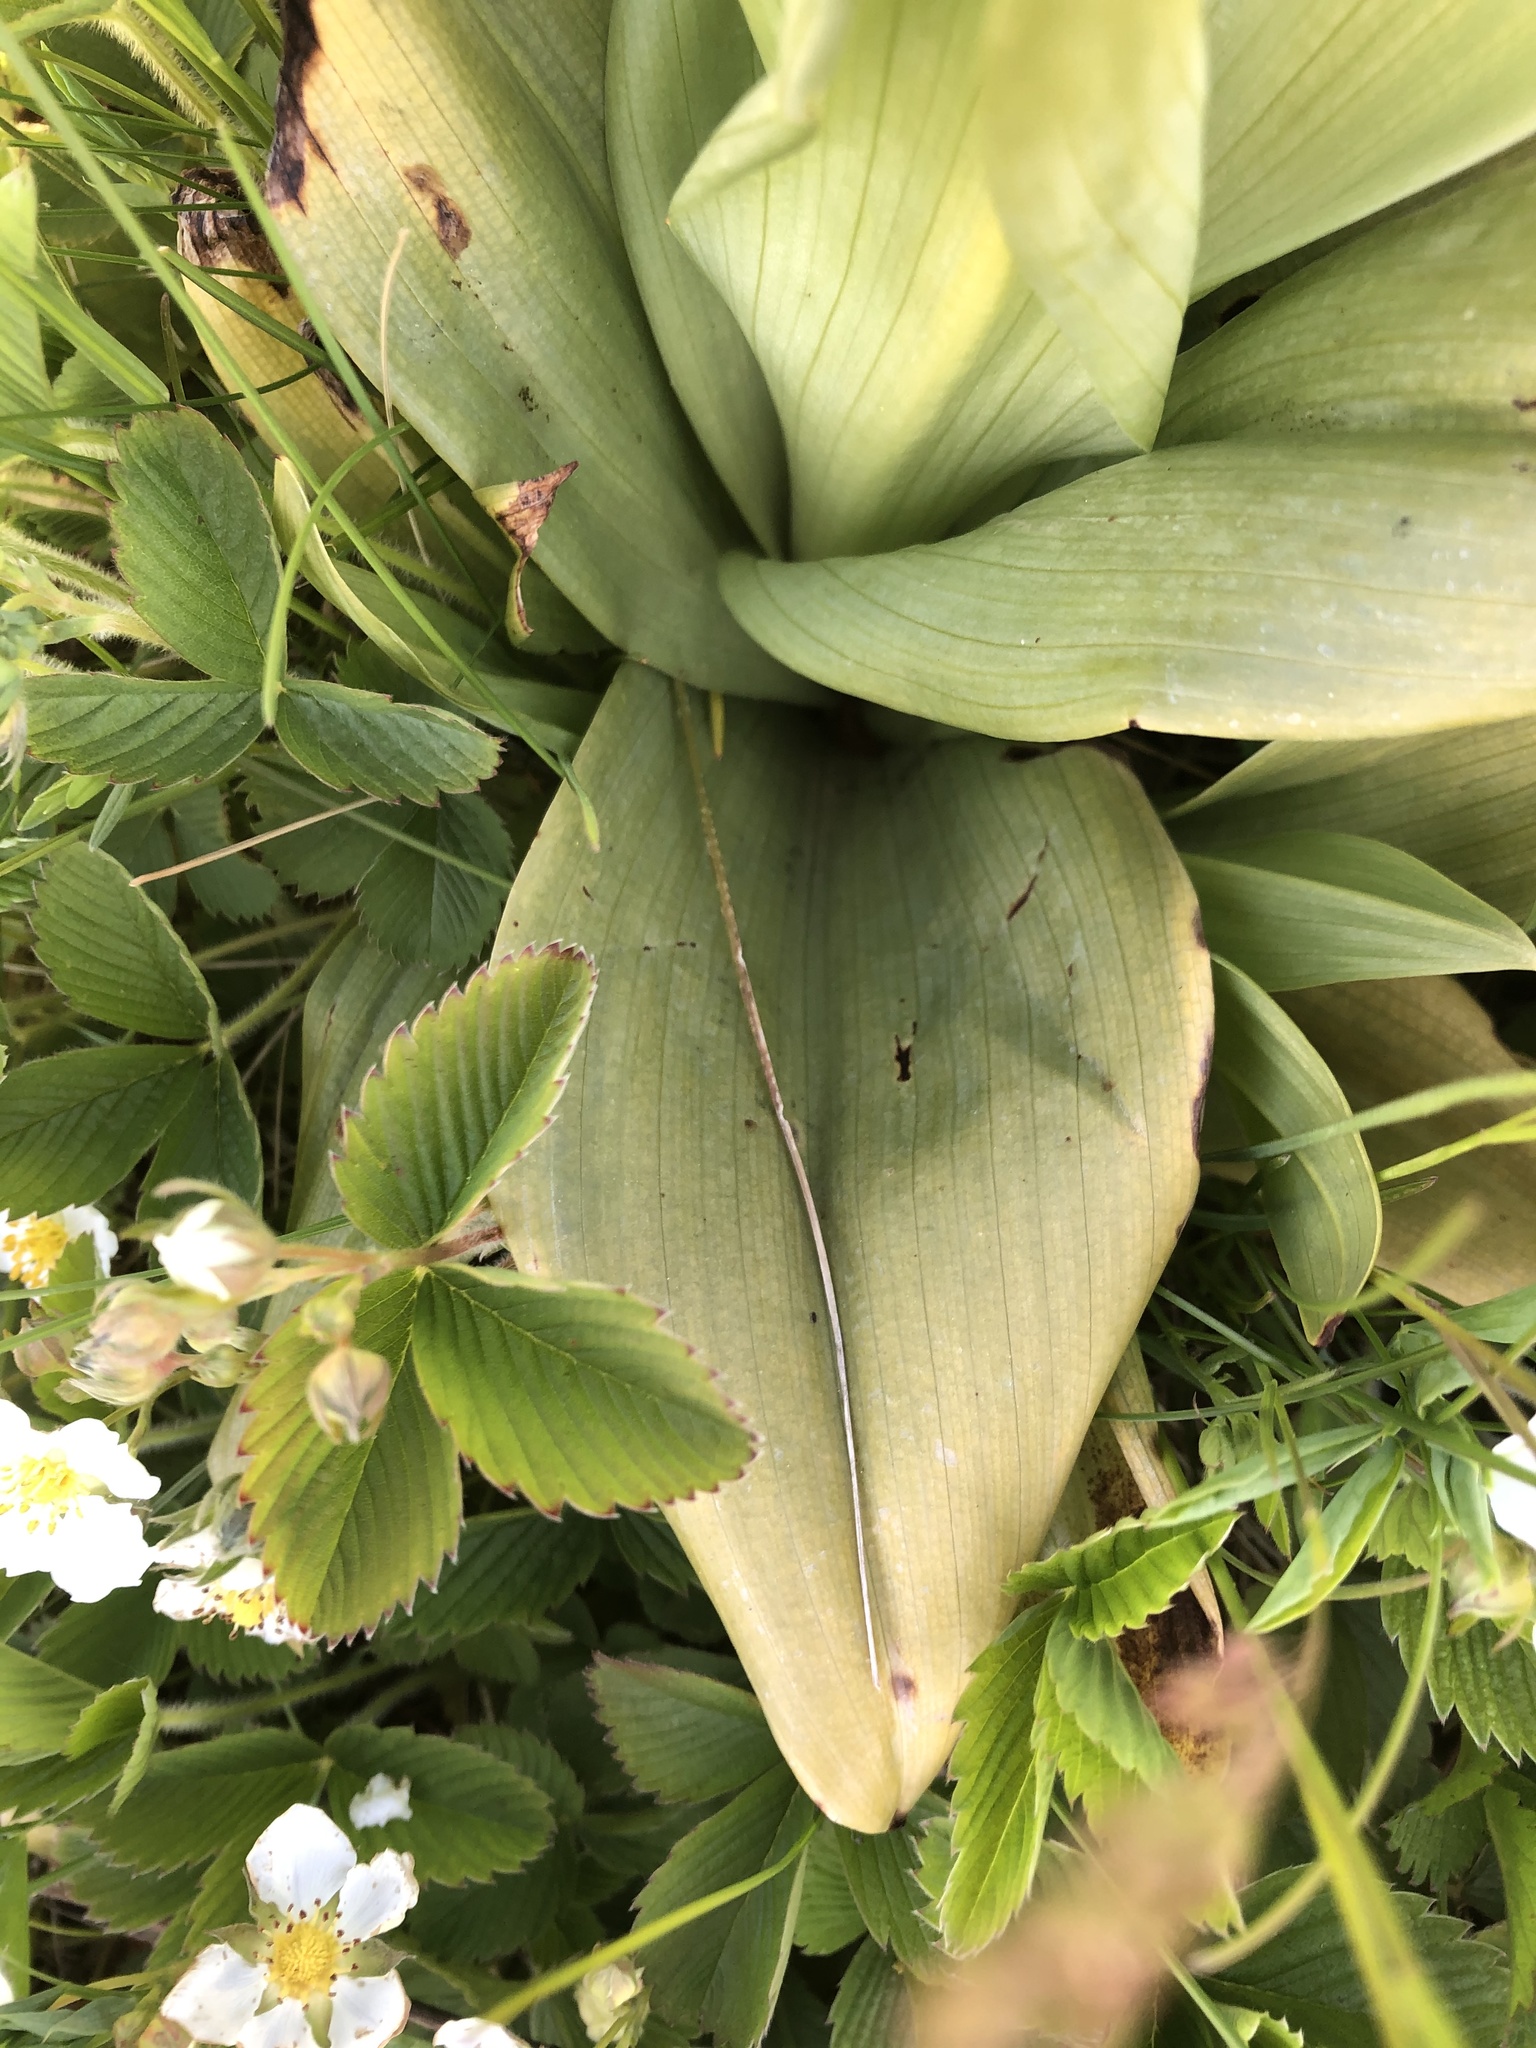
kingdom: Plantae
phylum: Tracheophyta
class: Liliopsida
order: Asparagales
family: Orchidaceae
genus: Himantoglossum
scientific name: Himantoglossum hircinum
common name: Lizard orchid
